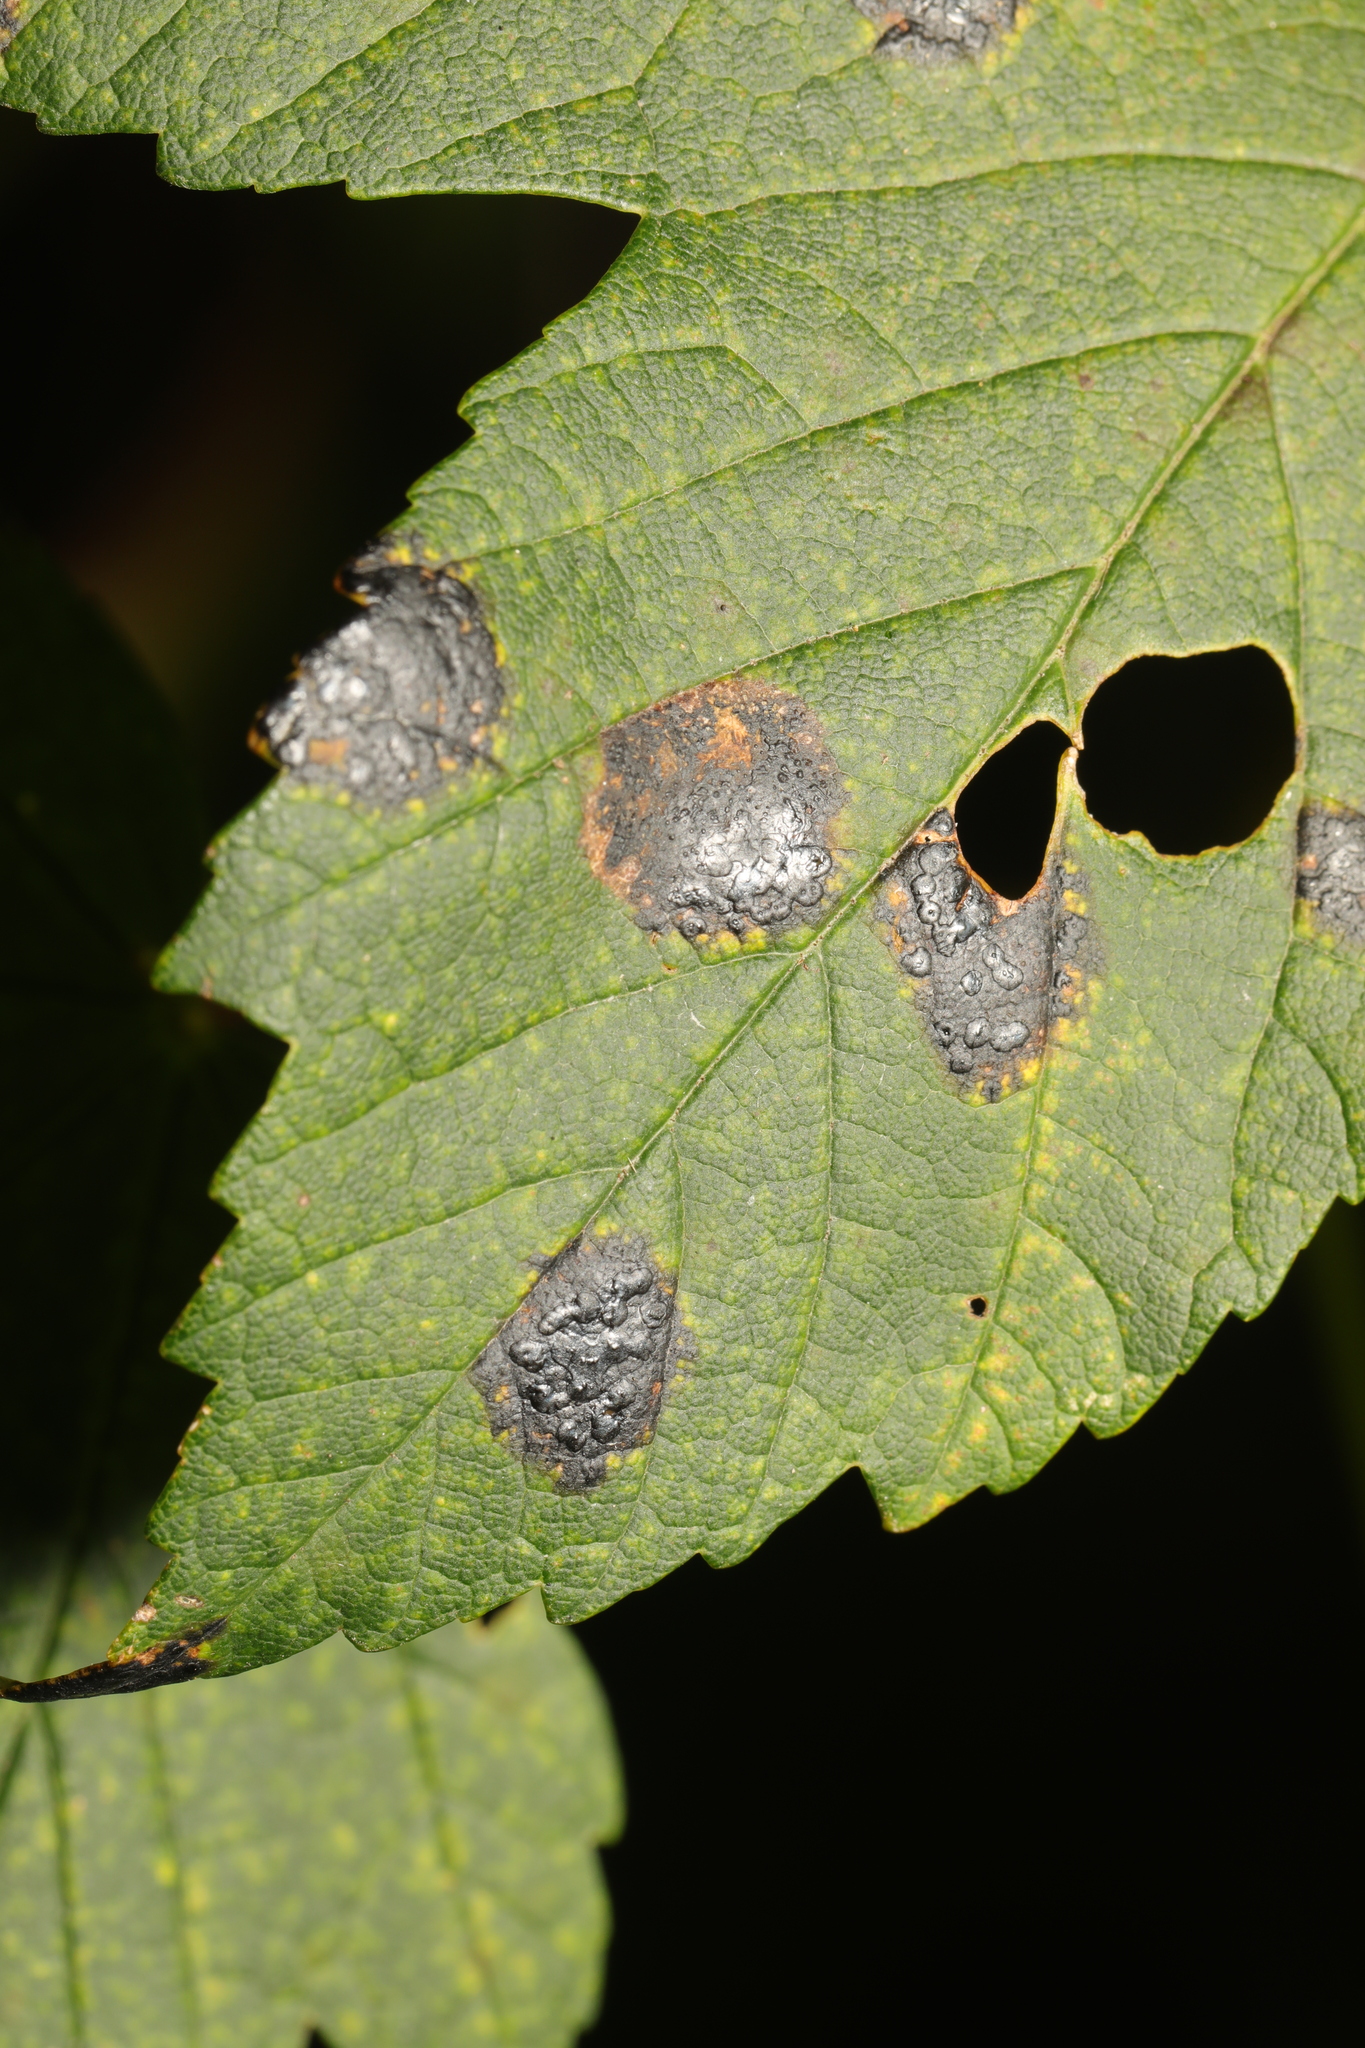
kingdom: Fungi
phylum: Ascomycota
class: Leotiomycetes
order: Rhytismatales
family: Rhytismataceae
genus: Rhytisma
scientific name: Rhytisma acerinum
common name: European tar spot
